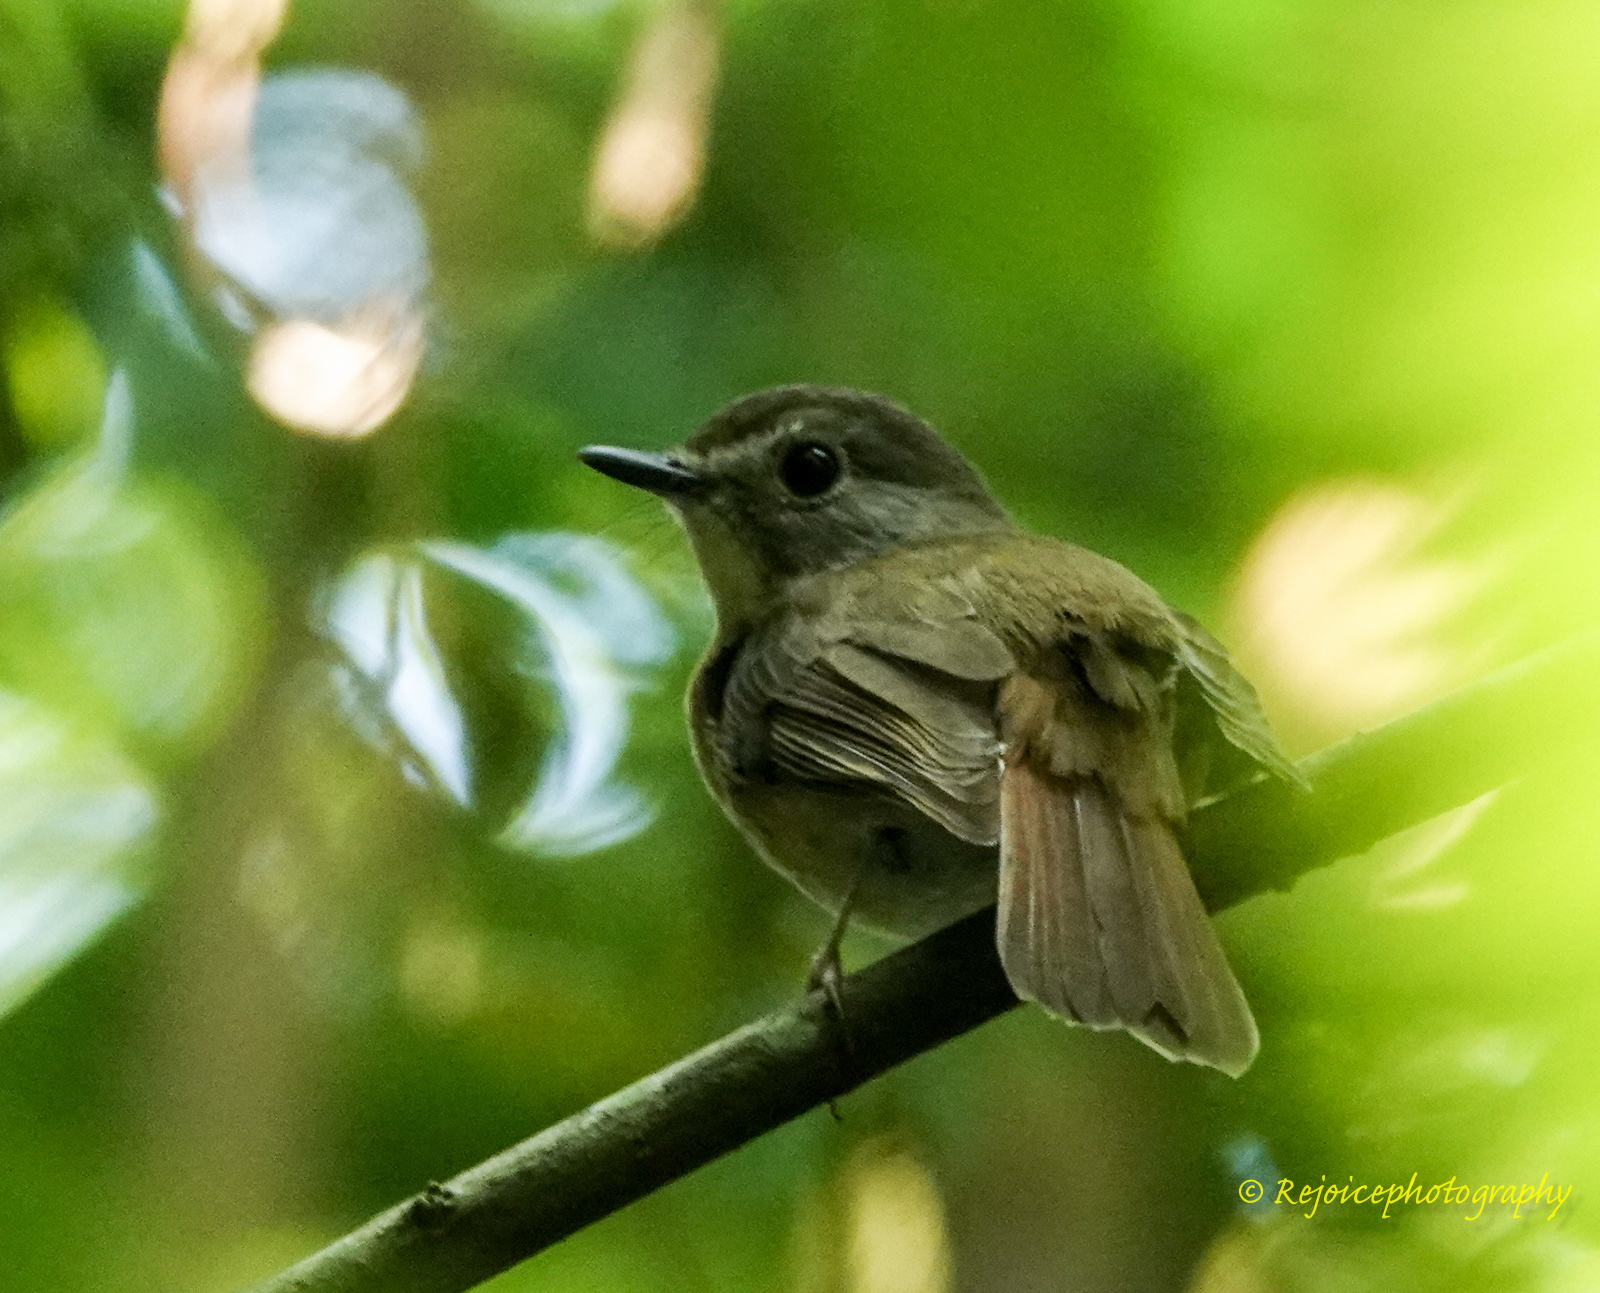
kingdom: Animalia
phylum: Chordata
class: Aves
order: Passeriformes
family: Muscicapidae
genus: Cyornis
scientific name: Cyornis poliogenys
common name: Pale-chinned blue flycatcher
